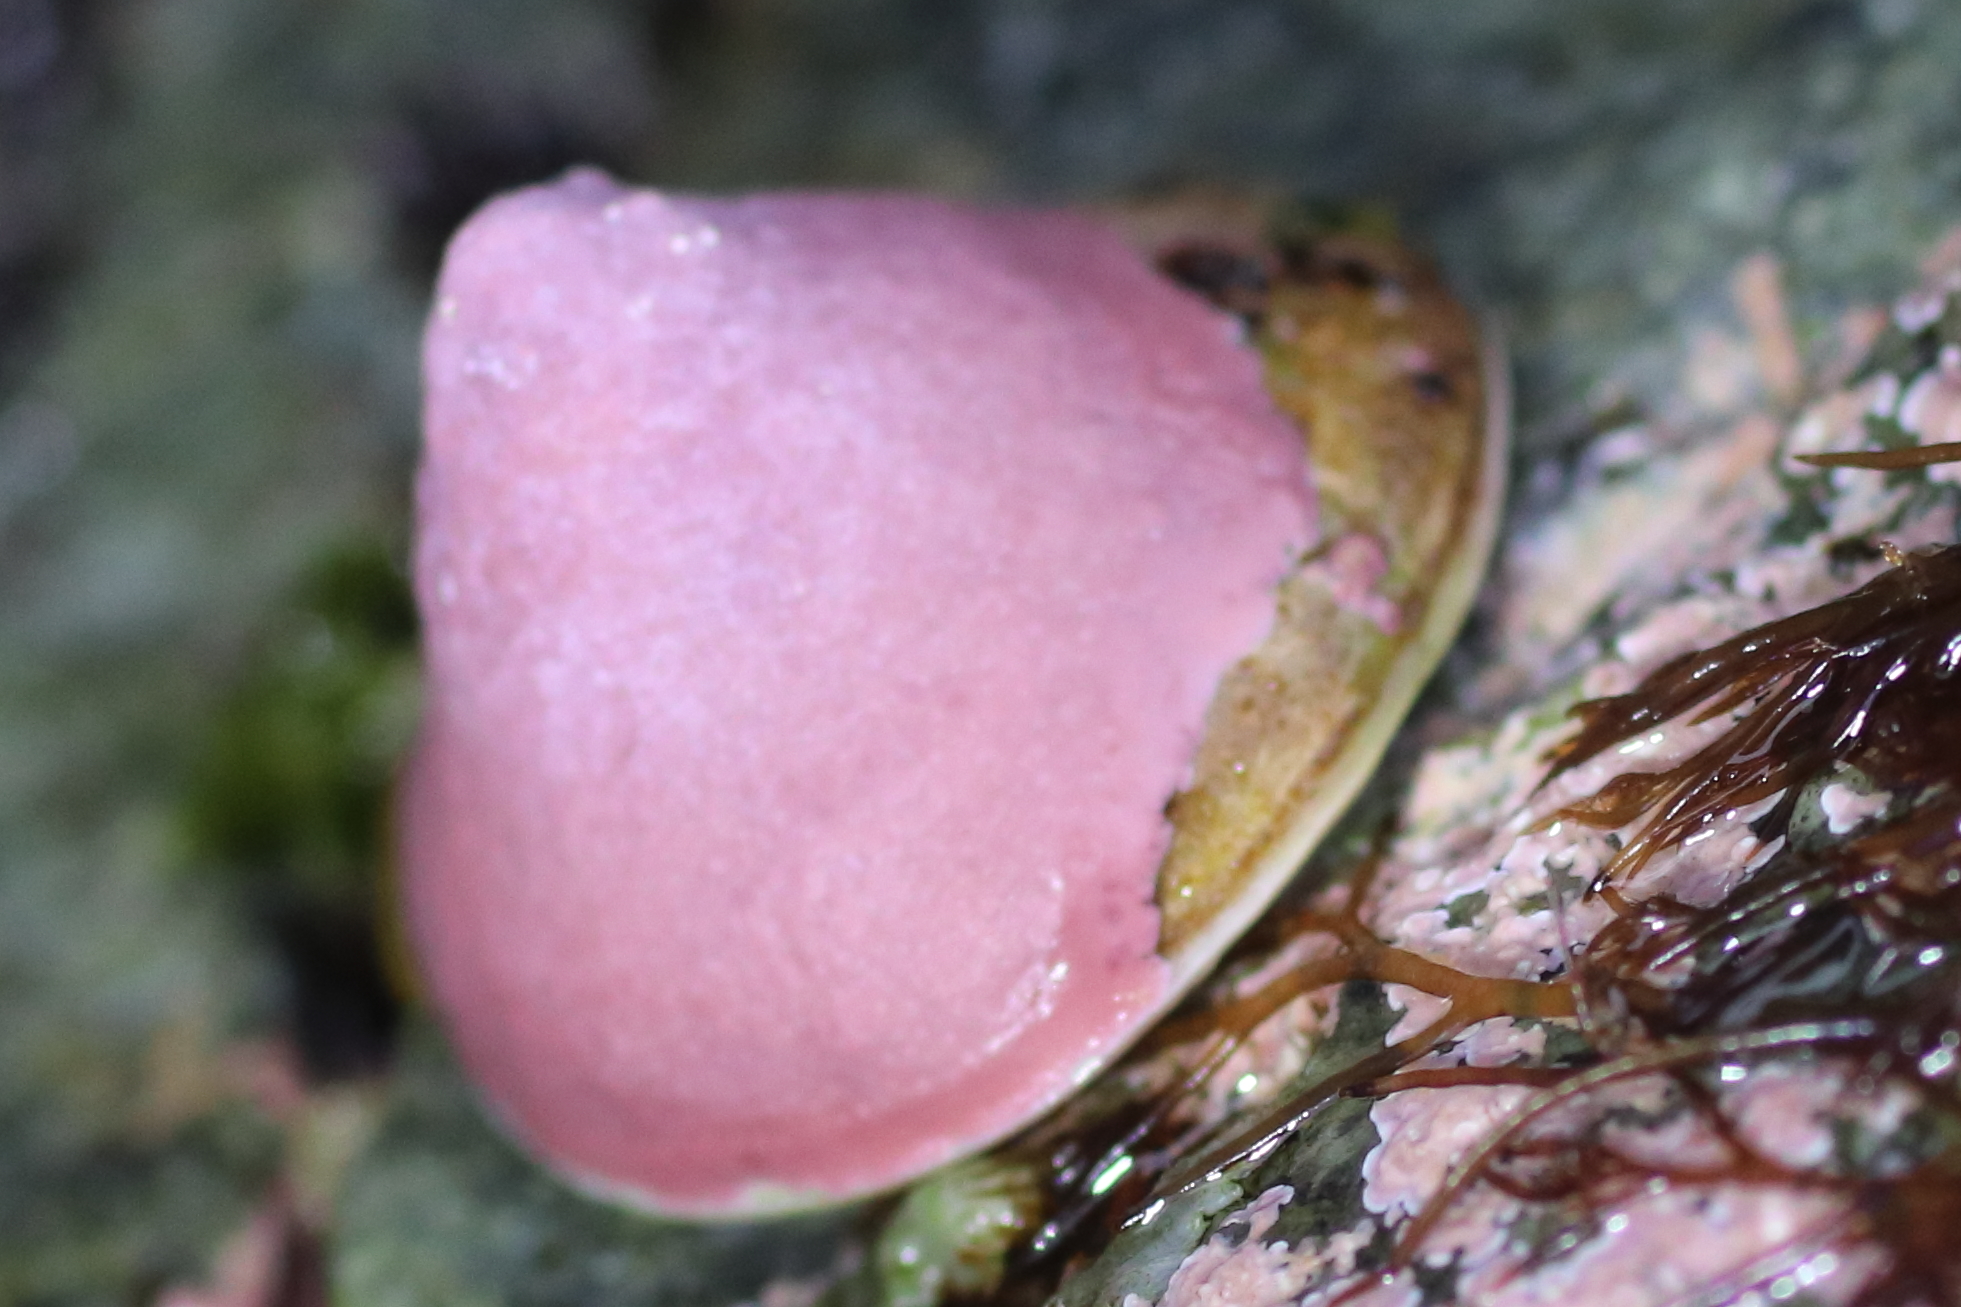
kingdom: Animalia
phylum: Mollusca
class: Gastropoda
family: Acmaeidae
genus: Acmaea
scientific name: Acmaea mitra
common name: Pacific white cap limpet
